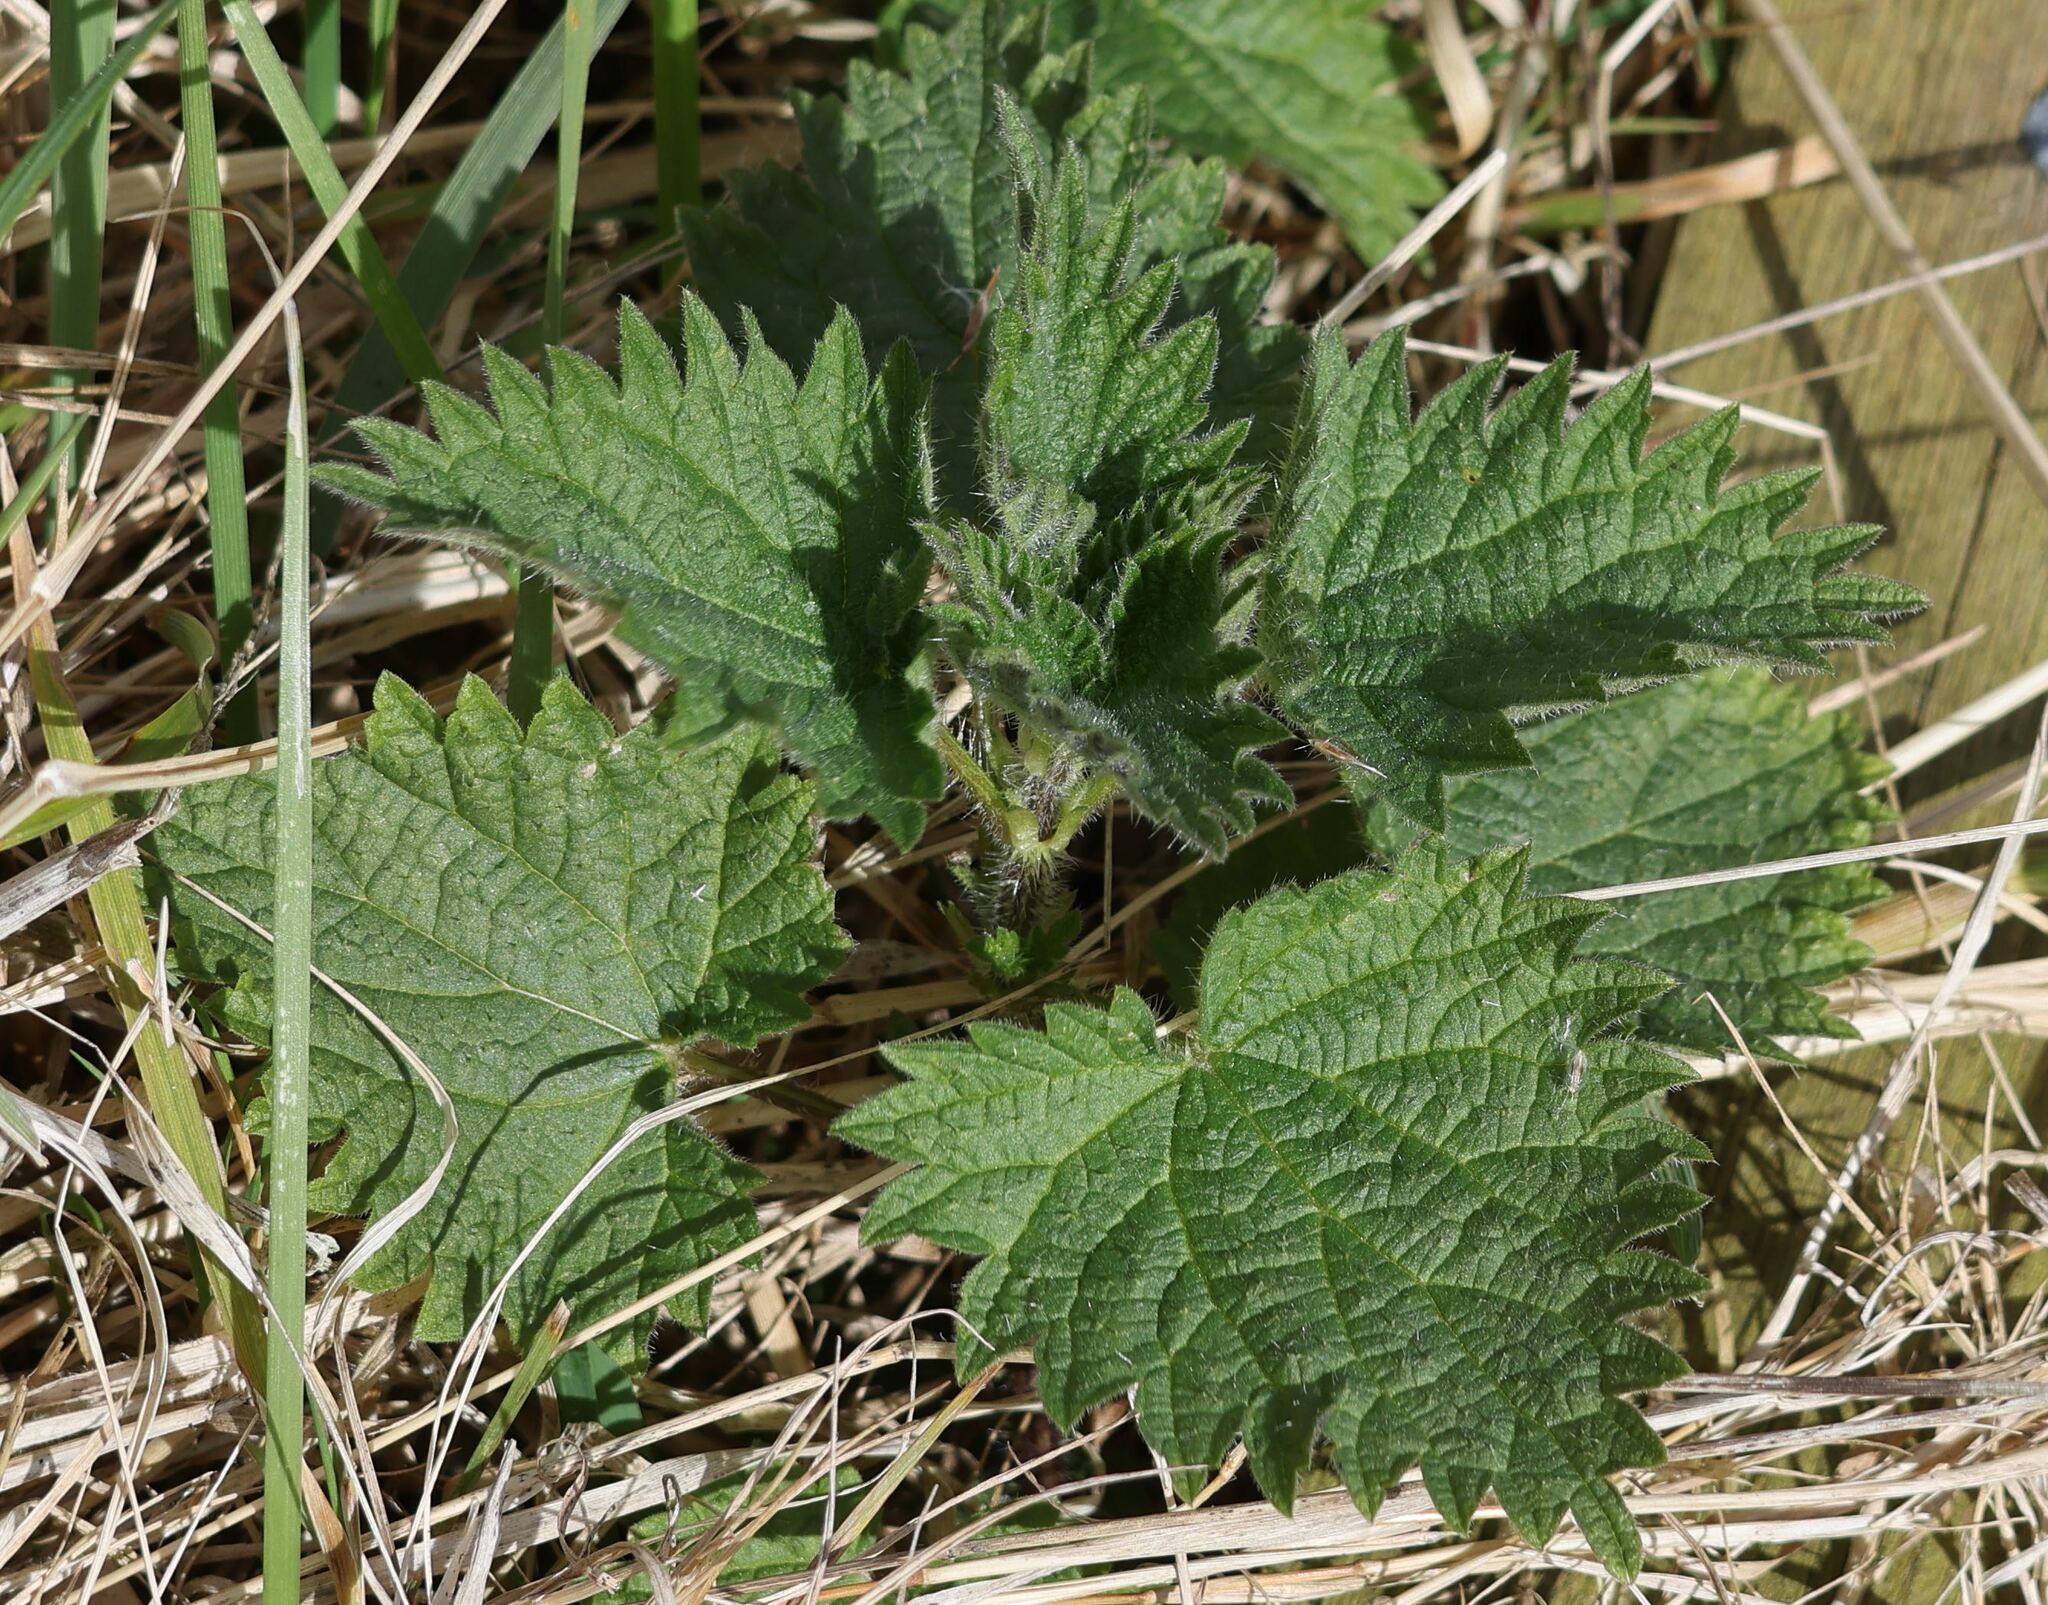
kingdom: Plantae
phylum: Tracheophyta
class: Magnoliopsida
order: Rosales
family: Urticaceae
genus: Urtica
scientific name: Urtica dioica
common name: Common nettle
